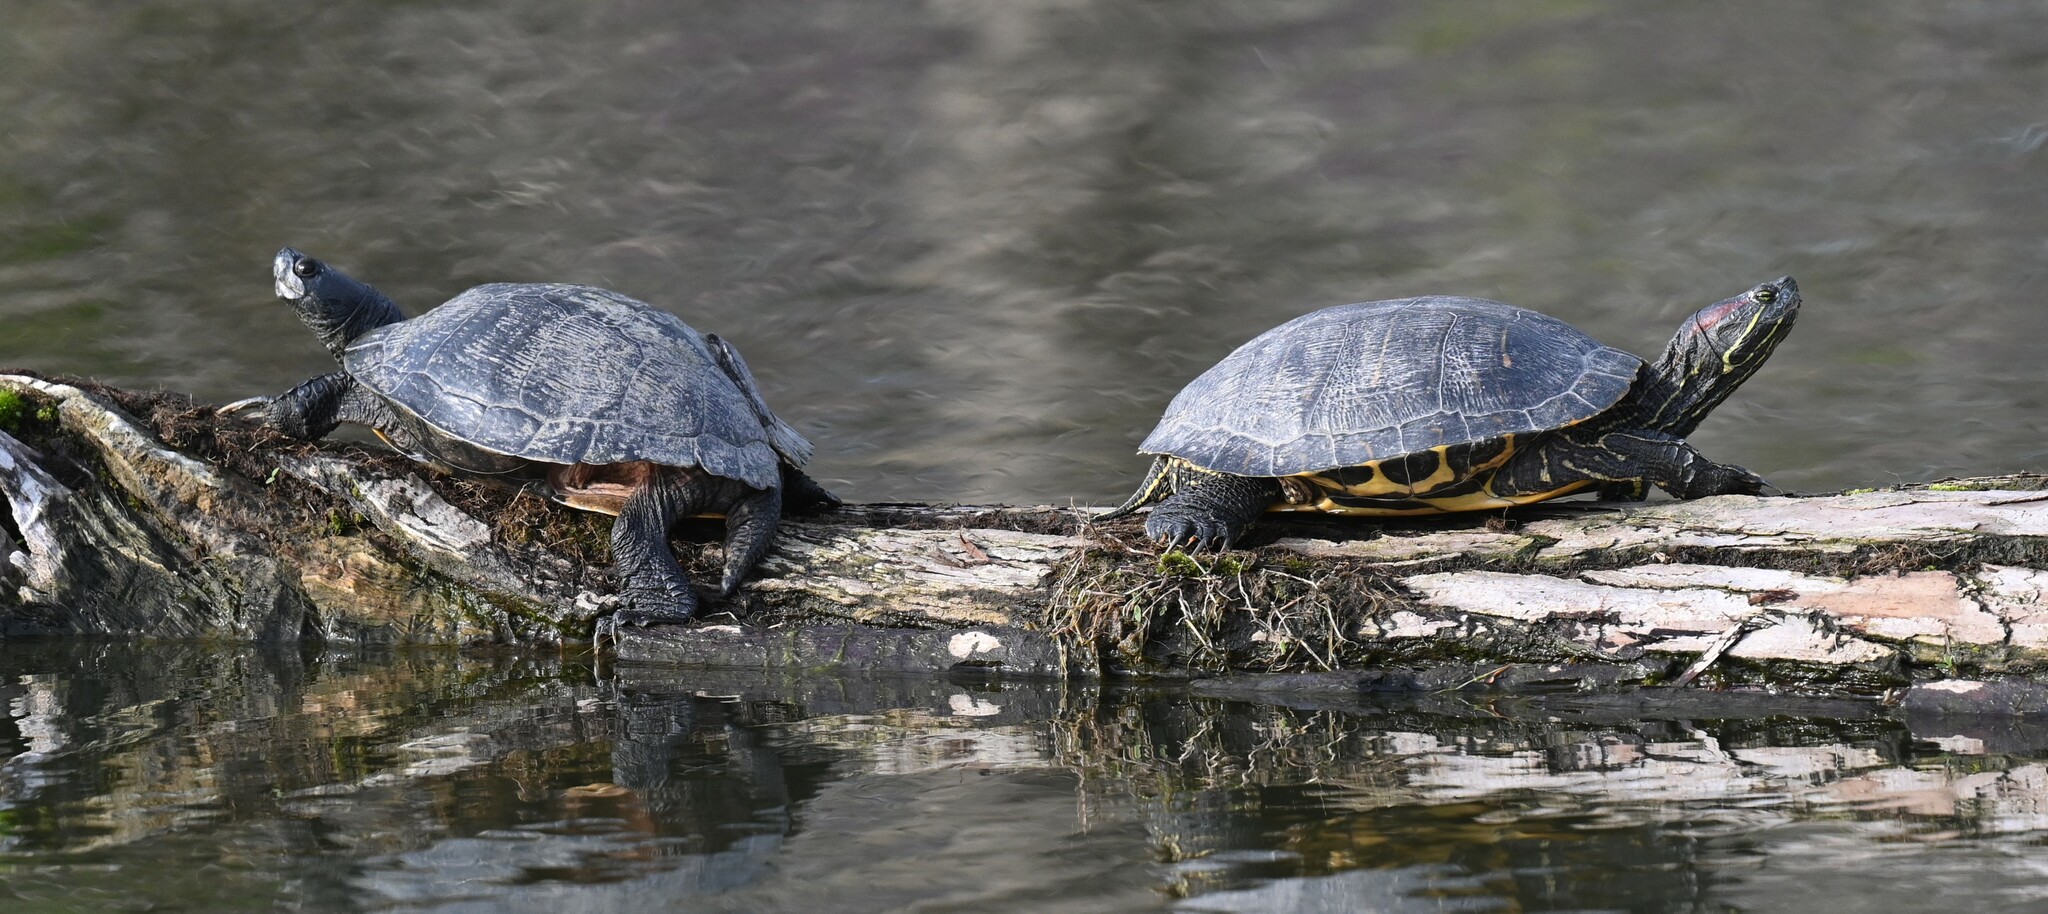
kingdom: Animalia
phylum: Chordata
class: Testudines
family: Emydidae
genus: Trachemys
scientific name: Trachemys scripta
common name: Slider
